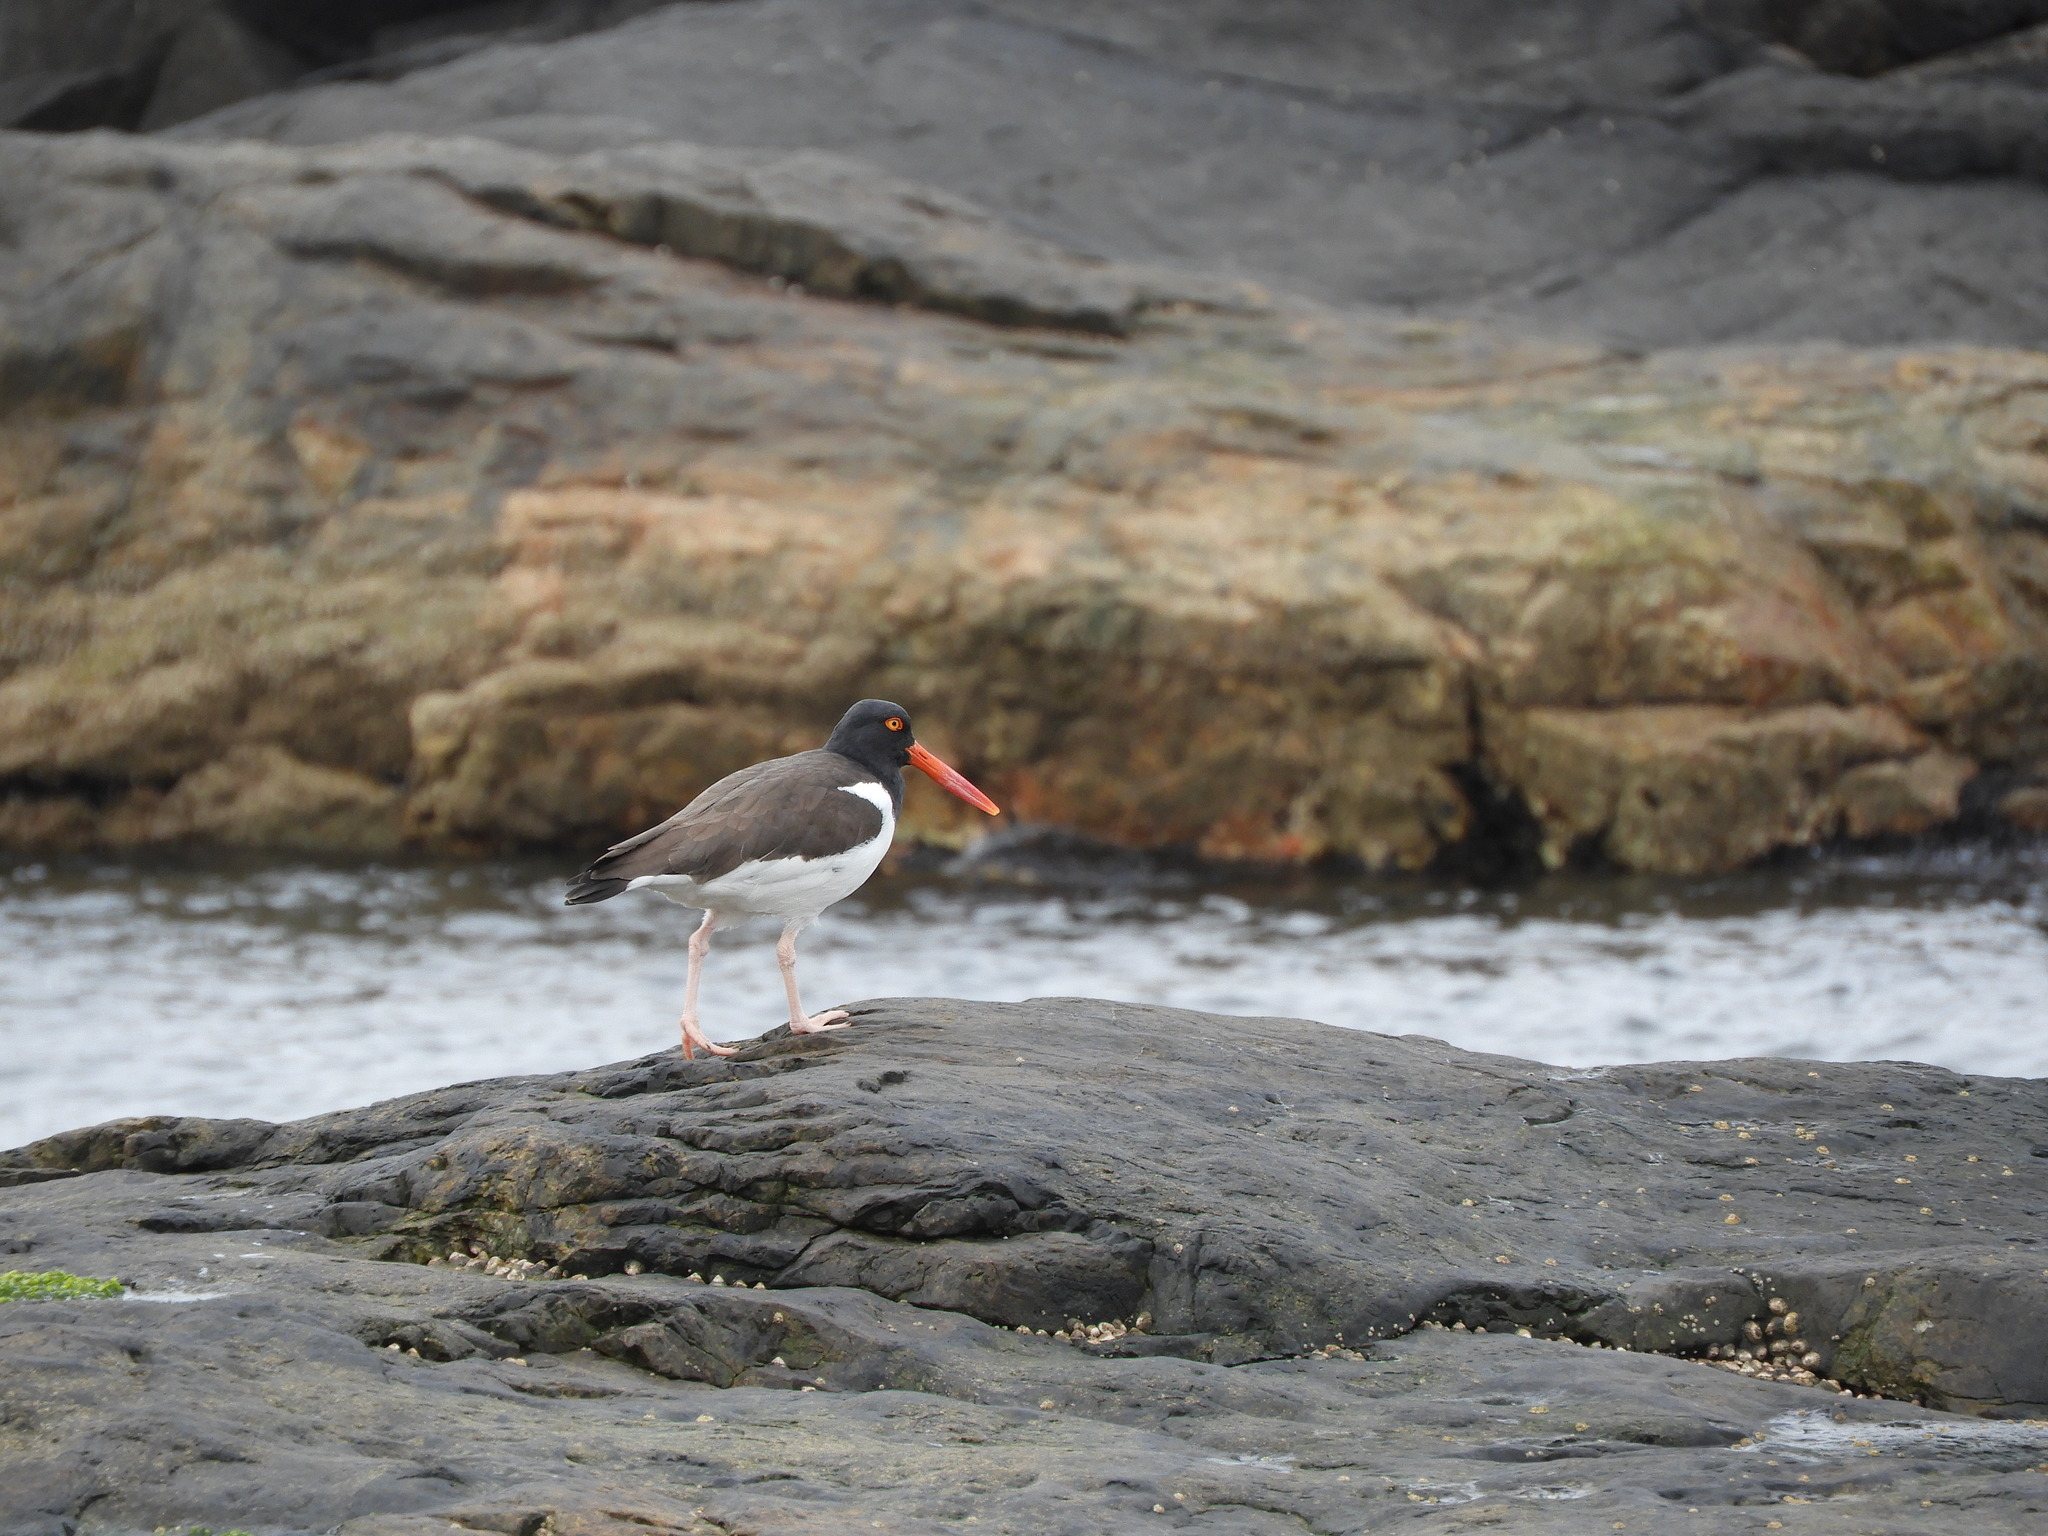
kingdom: Animalia
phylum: Chordata
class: Aves
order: Charadriiformes
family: Haematopodidae
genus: Haematopus
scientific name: Haematopus palliatus
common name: American oystercatcher
